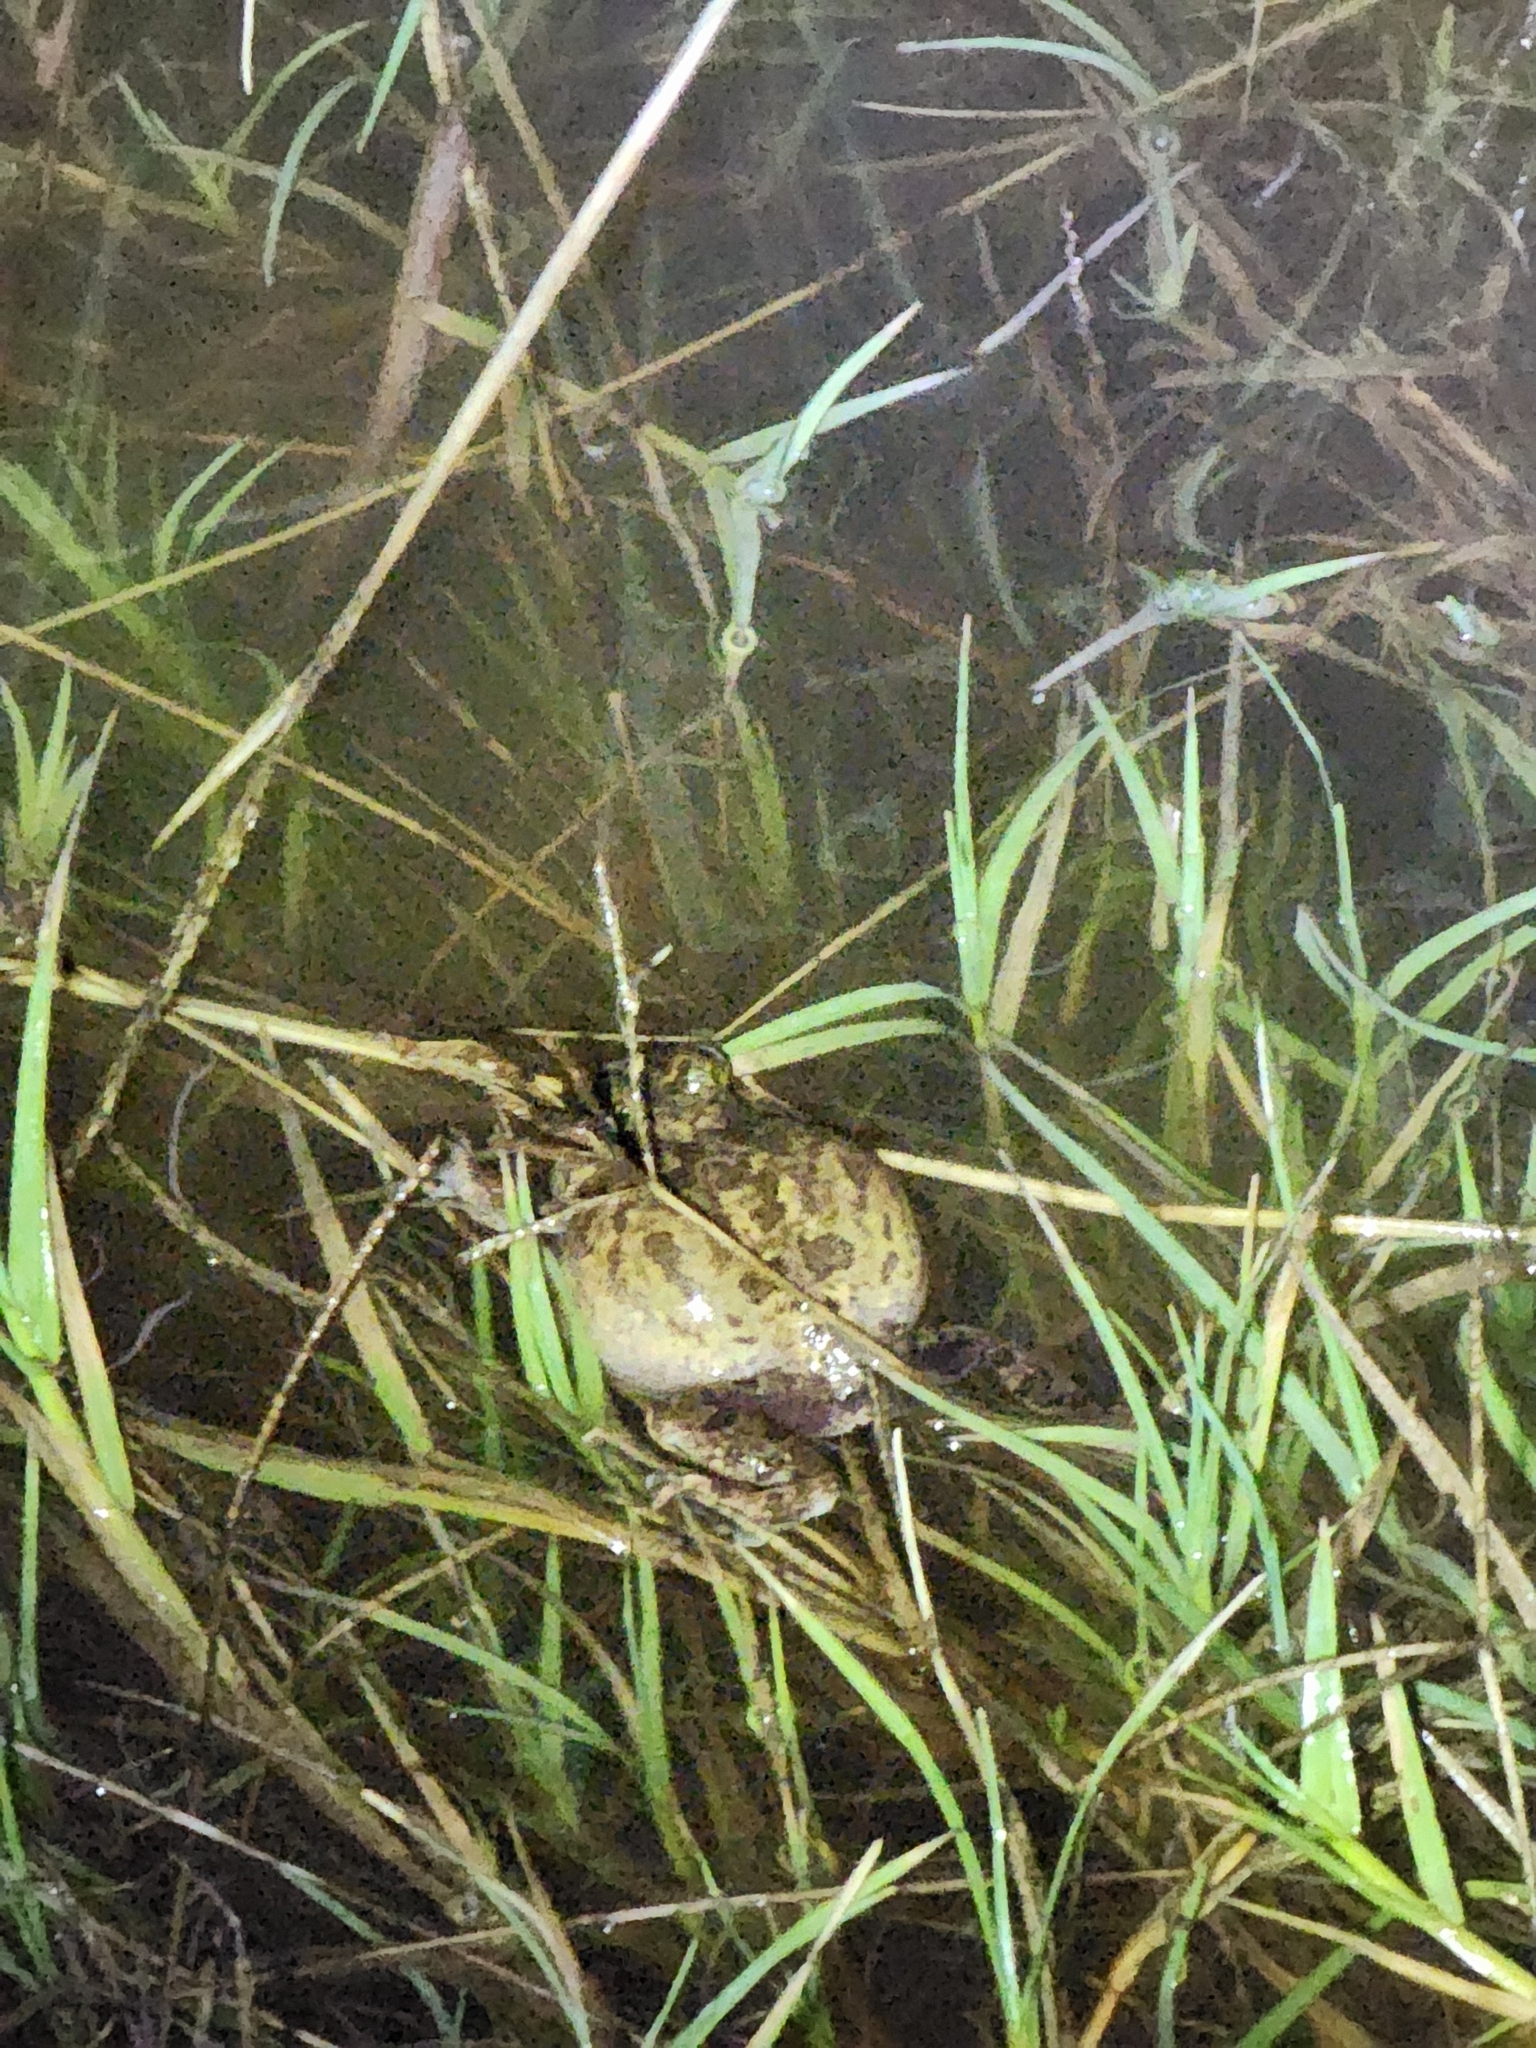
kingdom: Animalia
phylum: Chordata
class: Amphibia
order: Anura
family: Limnodynastidae
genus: Platyplectrum
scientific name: Platyplectrum ornatum
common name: Ornate burrowing frog
